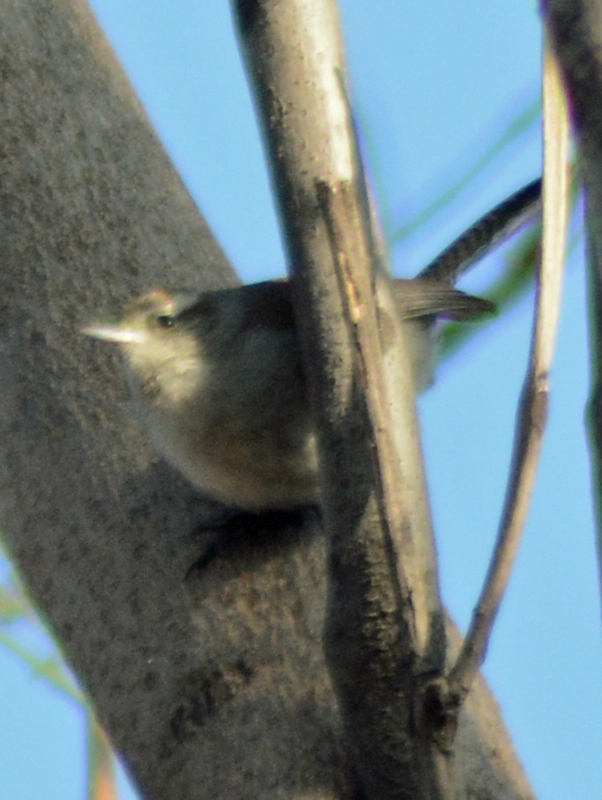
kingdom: Animalia
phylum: Chordata
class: Aves
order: Passeriformes
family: Troglodytidae
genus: Thryomanes
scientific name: Thryomanes bewickii
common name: Bewick's wren
